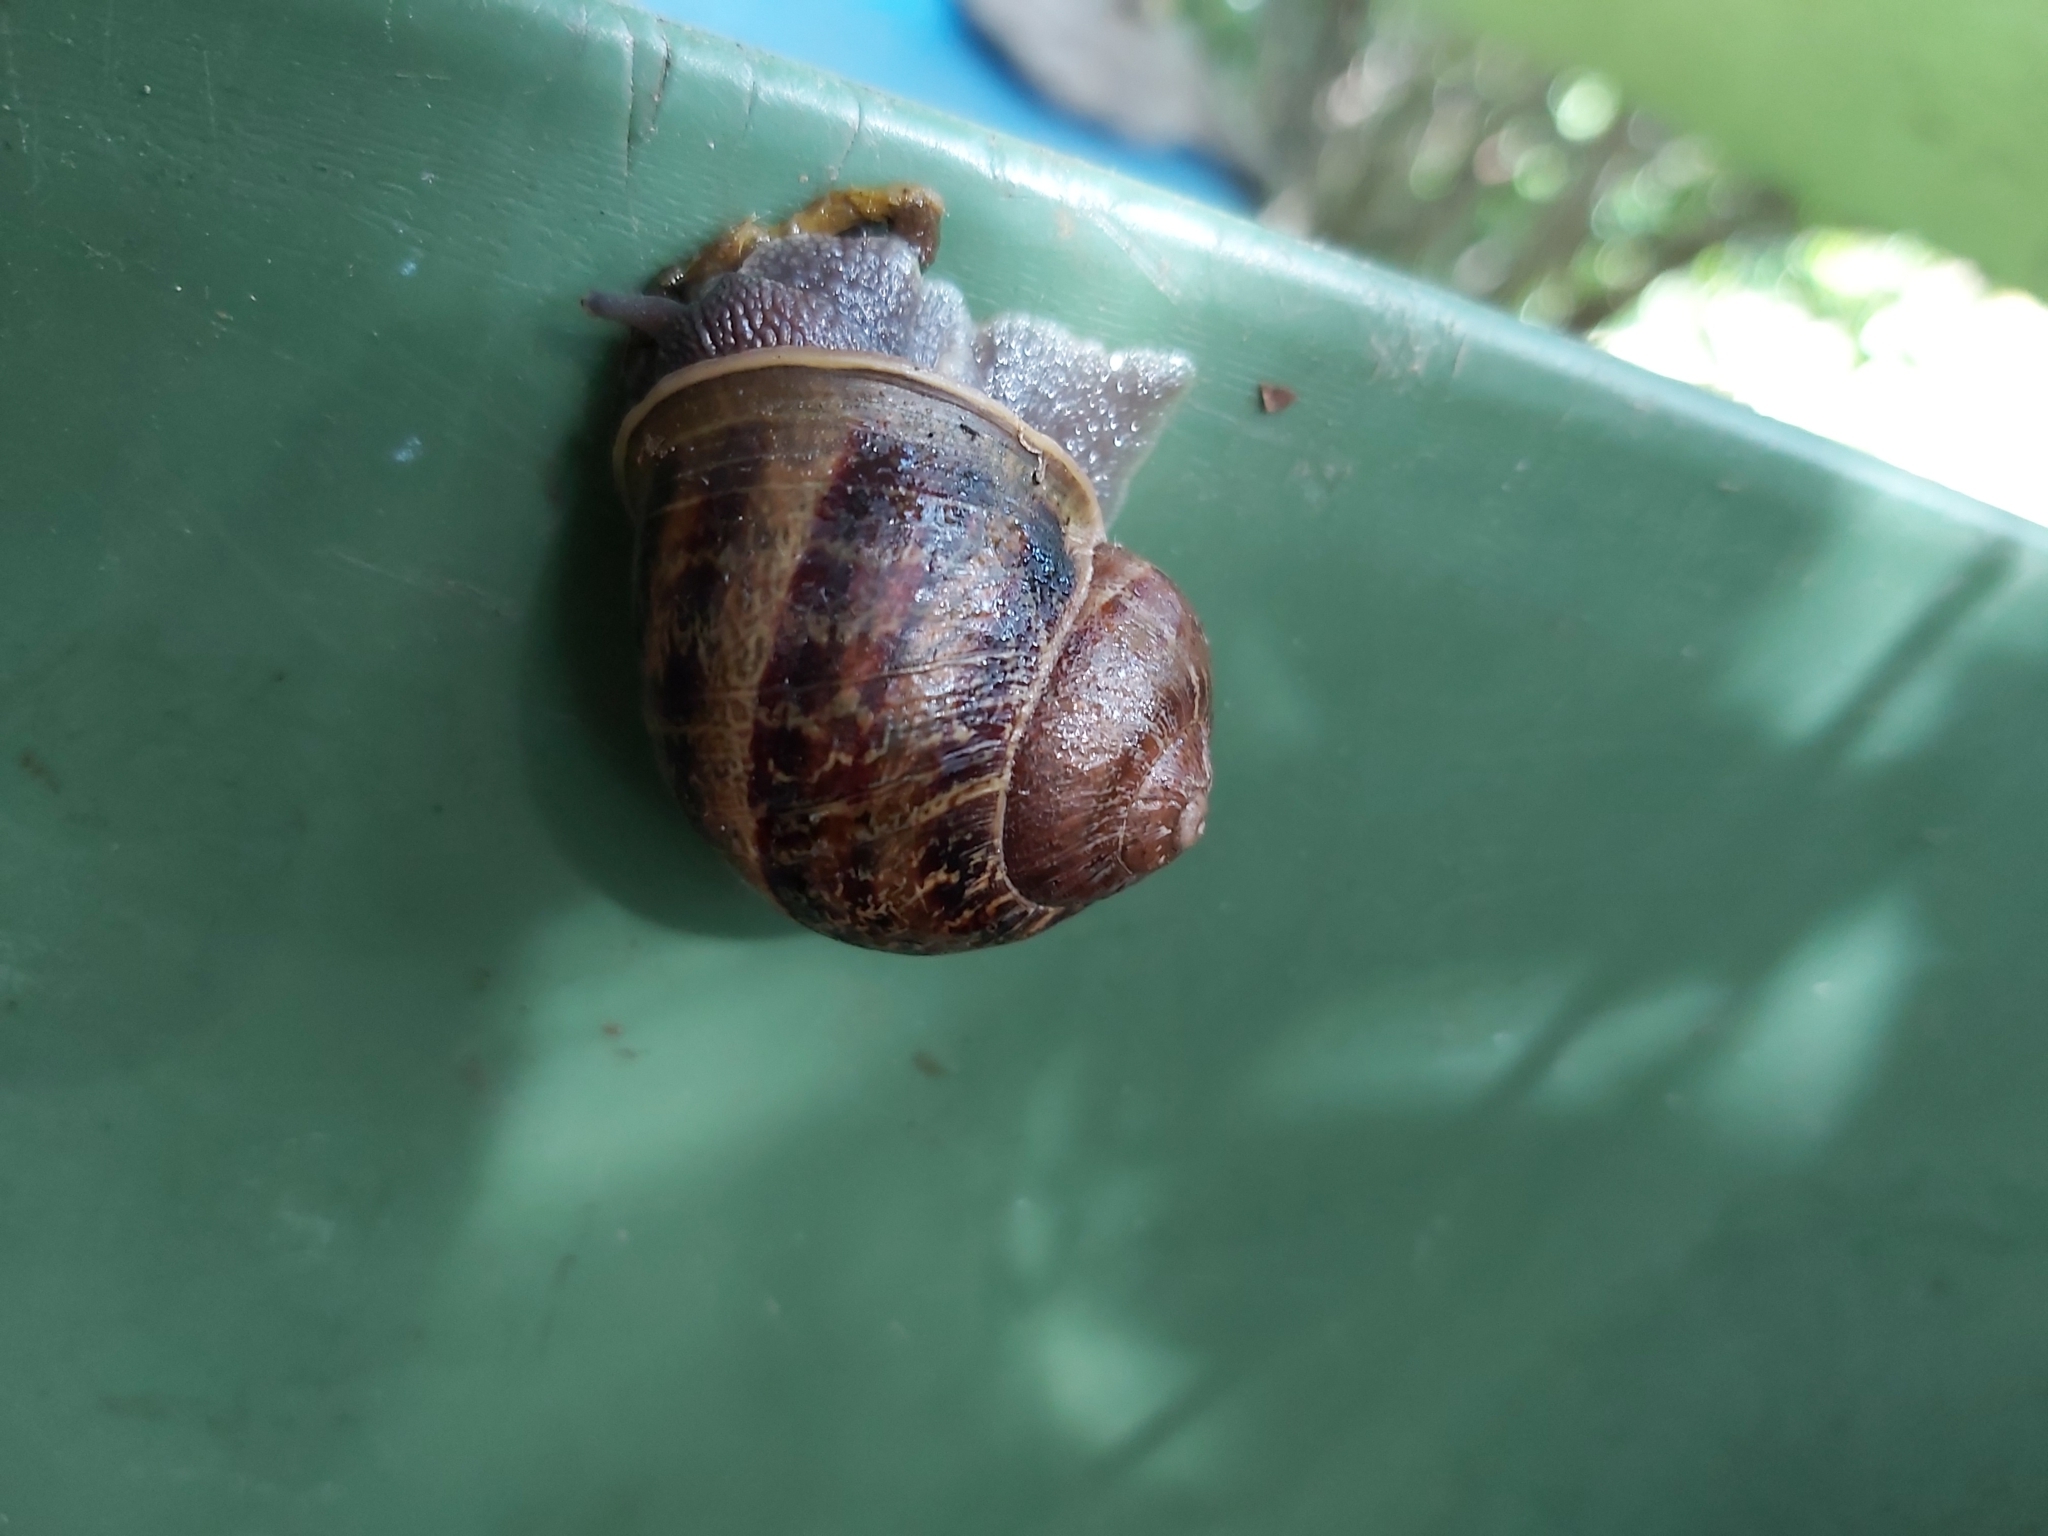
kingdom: Animalia
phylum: Mollusca
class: Gastropoda
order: Stylommatophora
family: Helicidae
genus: Cornu
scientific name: Cornu aspersum
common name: Brown garden snail
